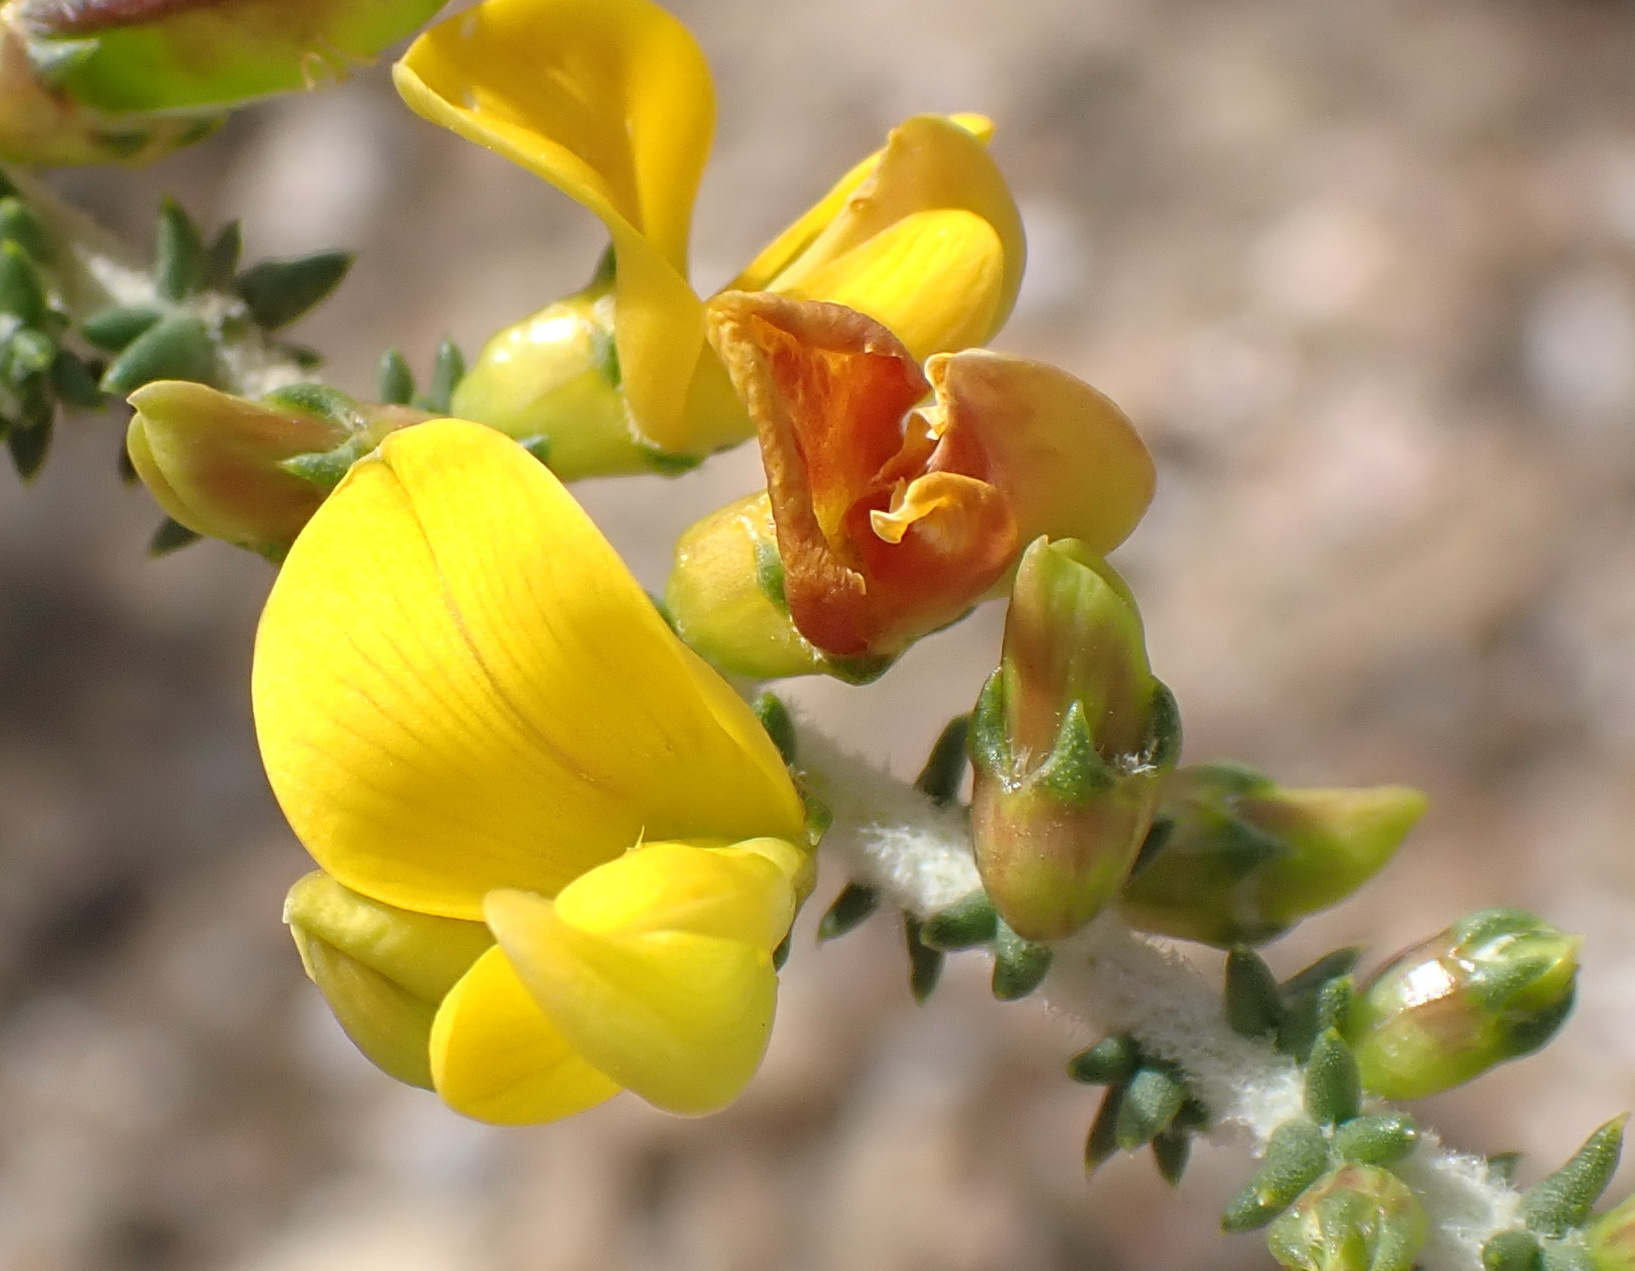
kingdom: Plantae
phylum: Tracheophyta
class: Magnoliopsida
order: Fabales
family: Fabaceae
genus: Aspalathus
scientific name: Aspalathus pinguis
